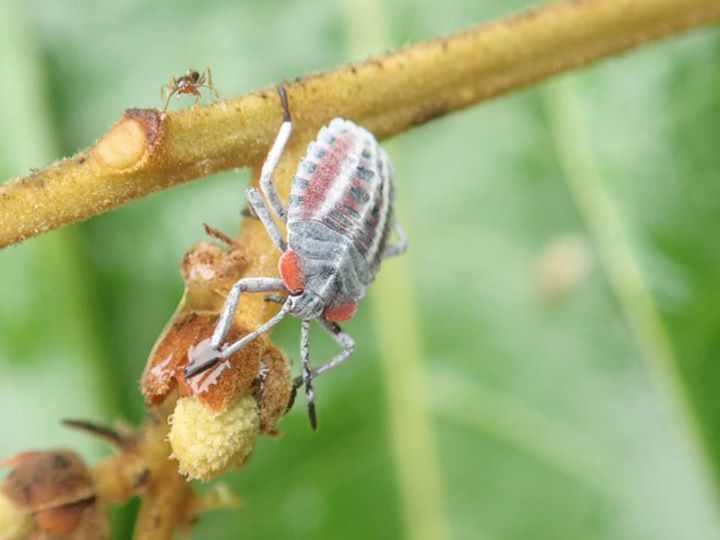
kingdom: Animalia
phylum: Arthropoda
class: Insecta
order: Hemiptera
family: Tessaratomidae
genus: Tessaratoma
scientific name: Tessaratoma papillosa
